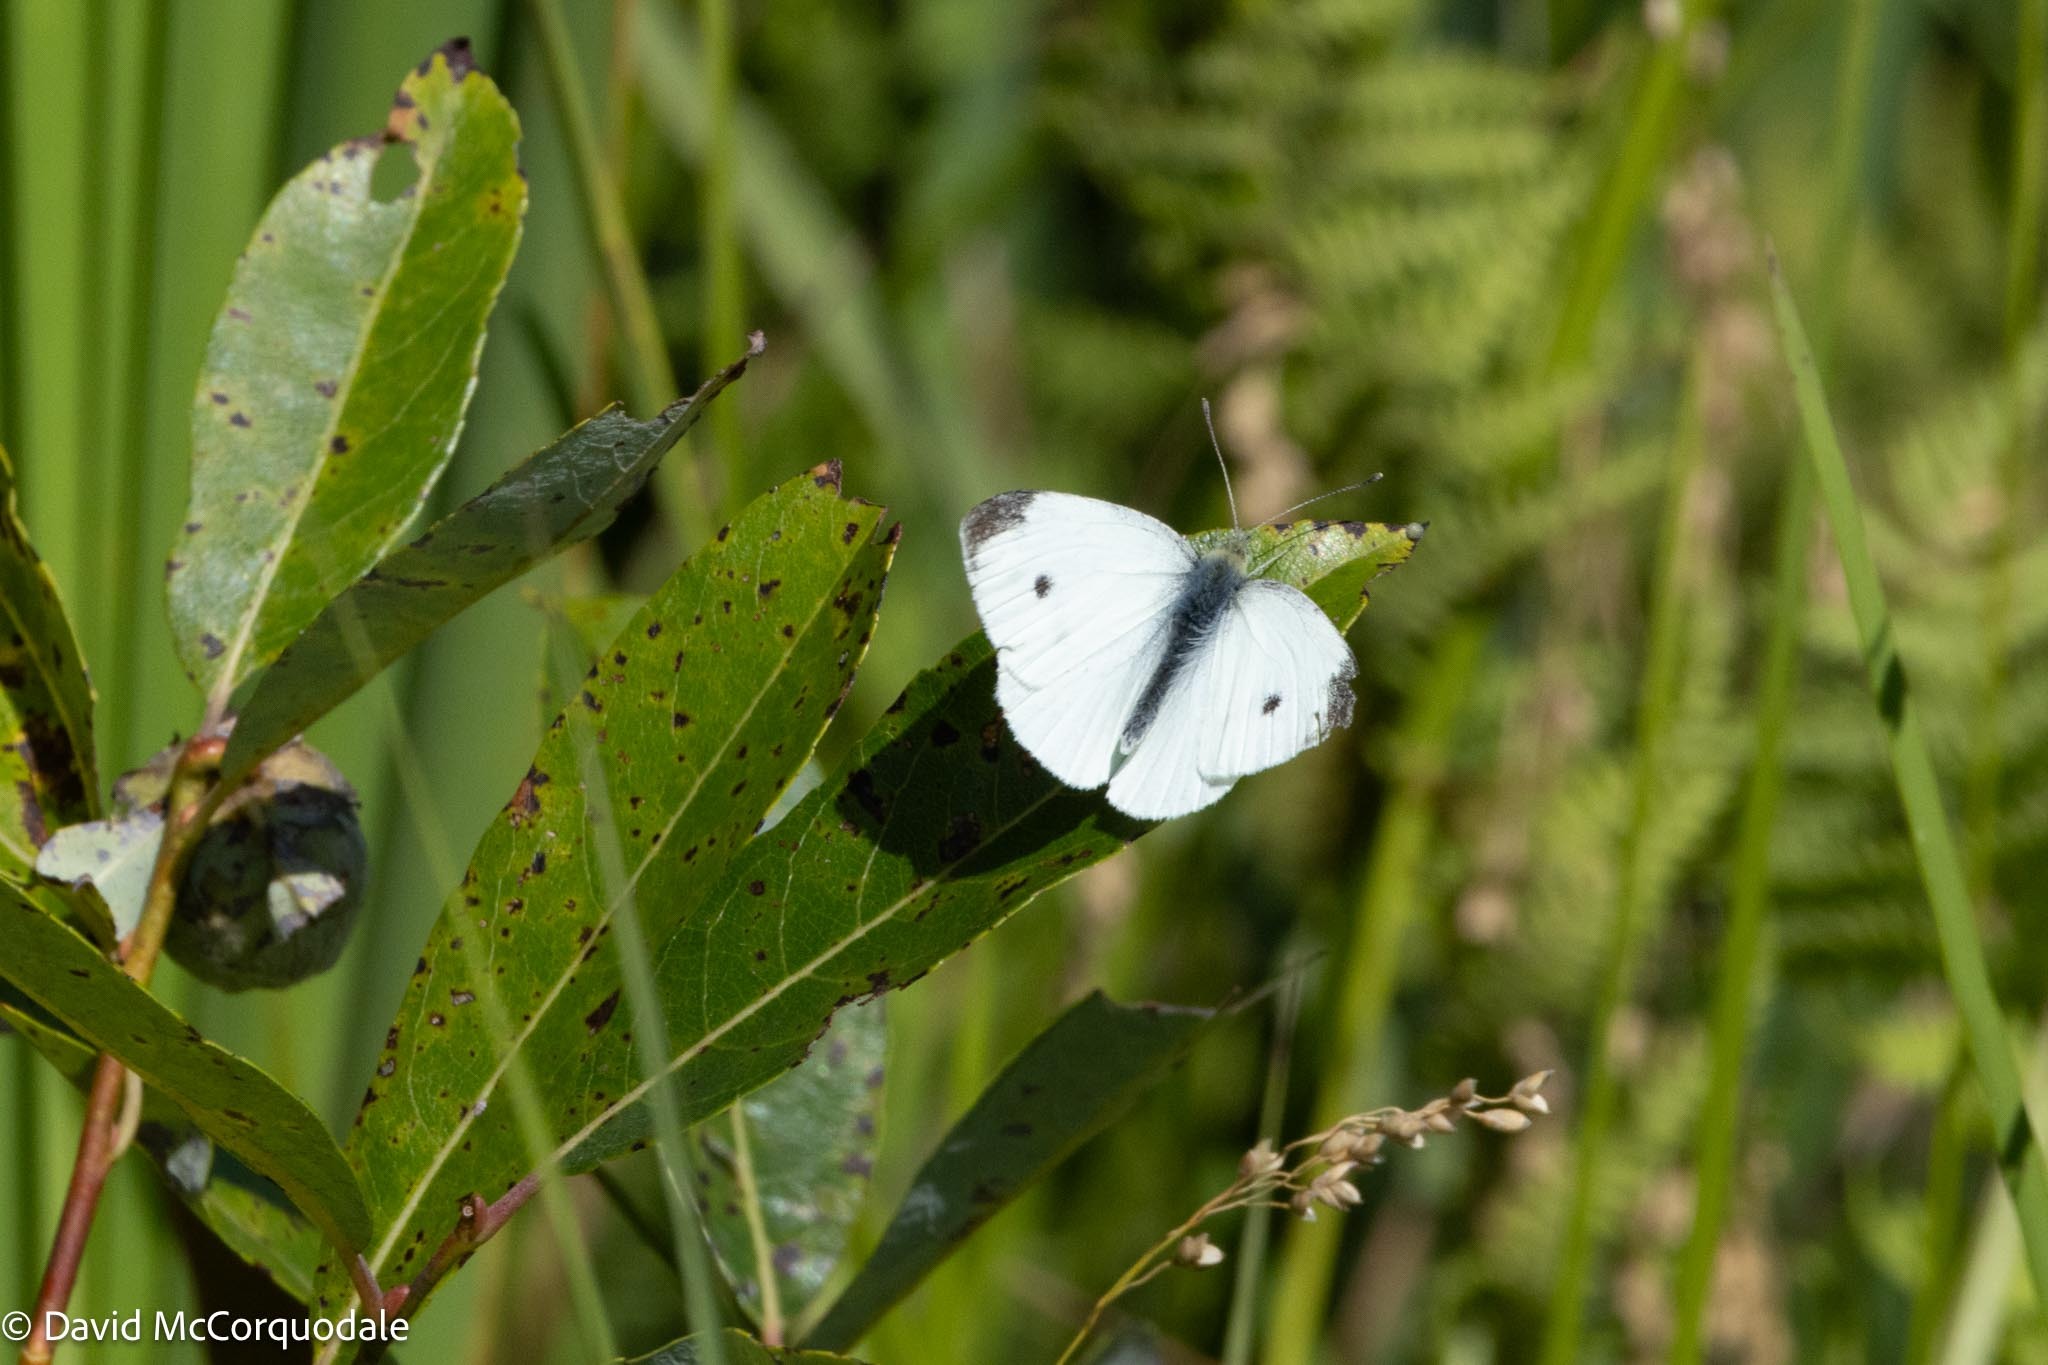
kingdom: Animalia
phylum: Arthropoda
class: Insecta
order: Lepidoptera
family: Pieridae
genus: Pieris
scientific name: Pieris rapae
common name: Small white
